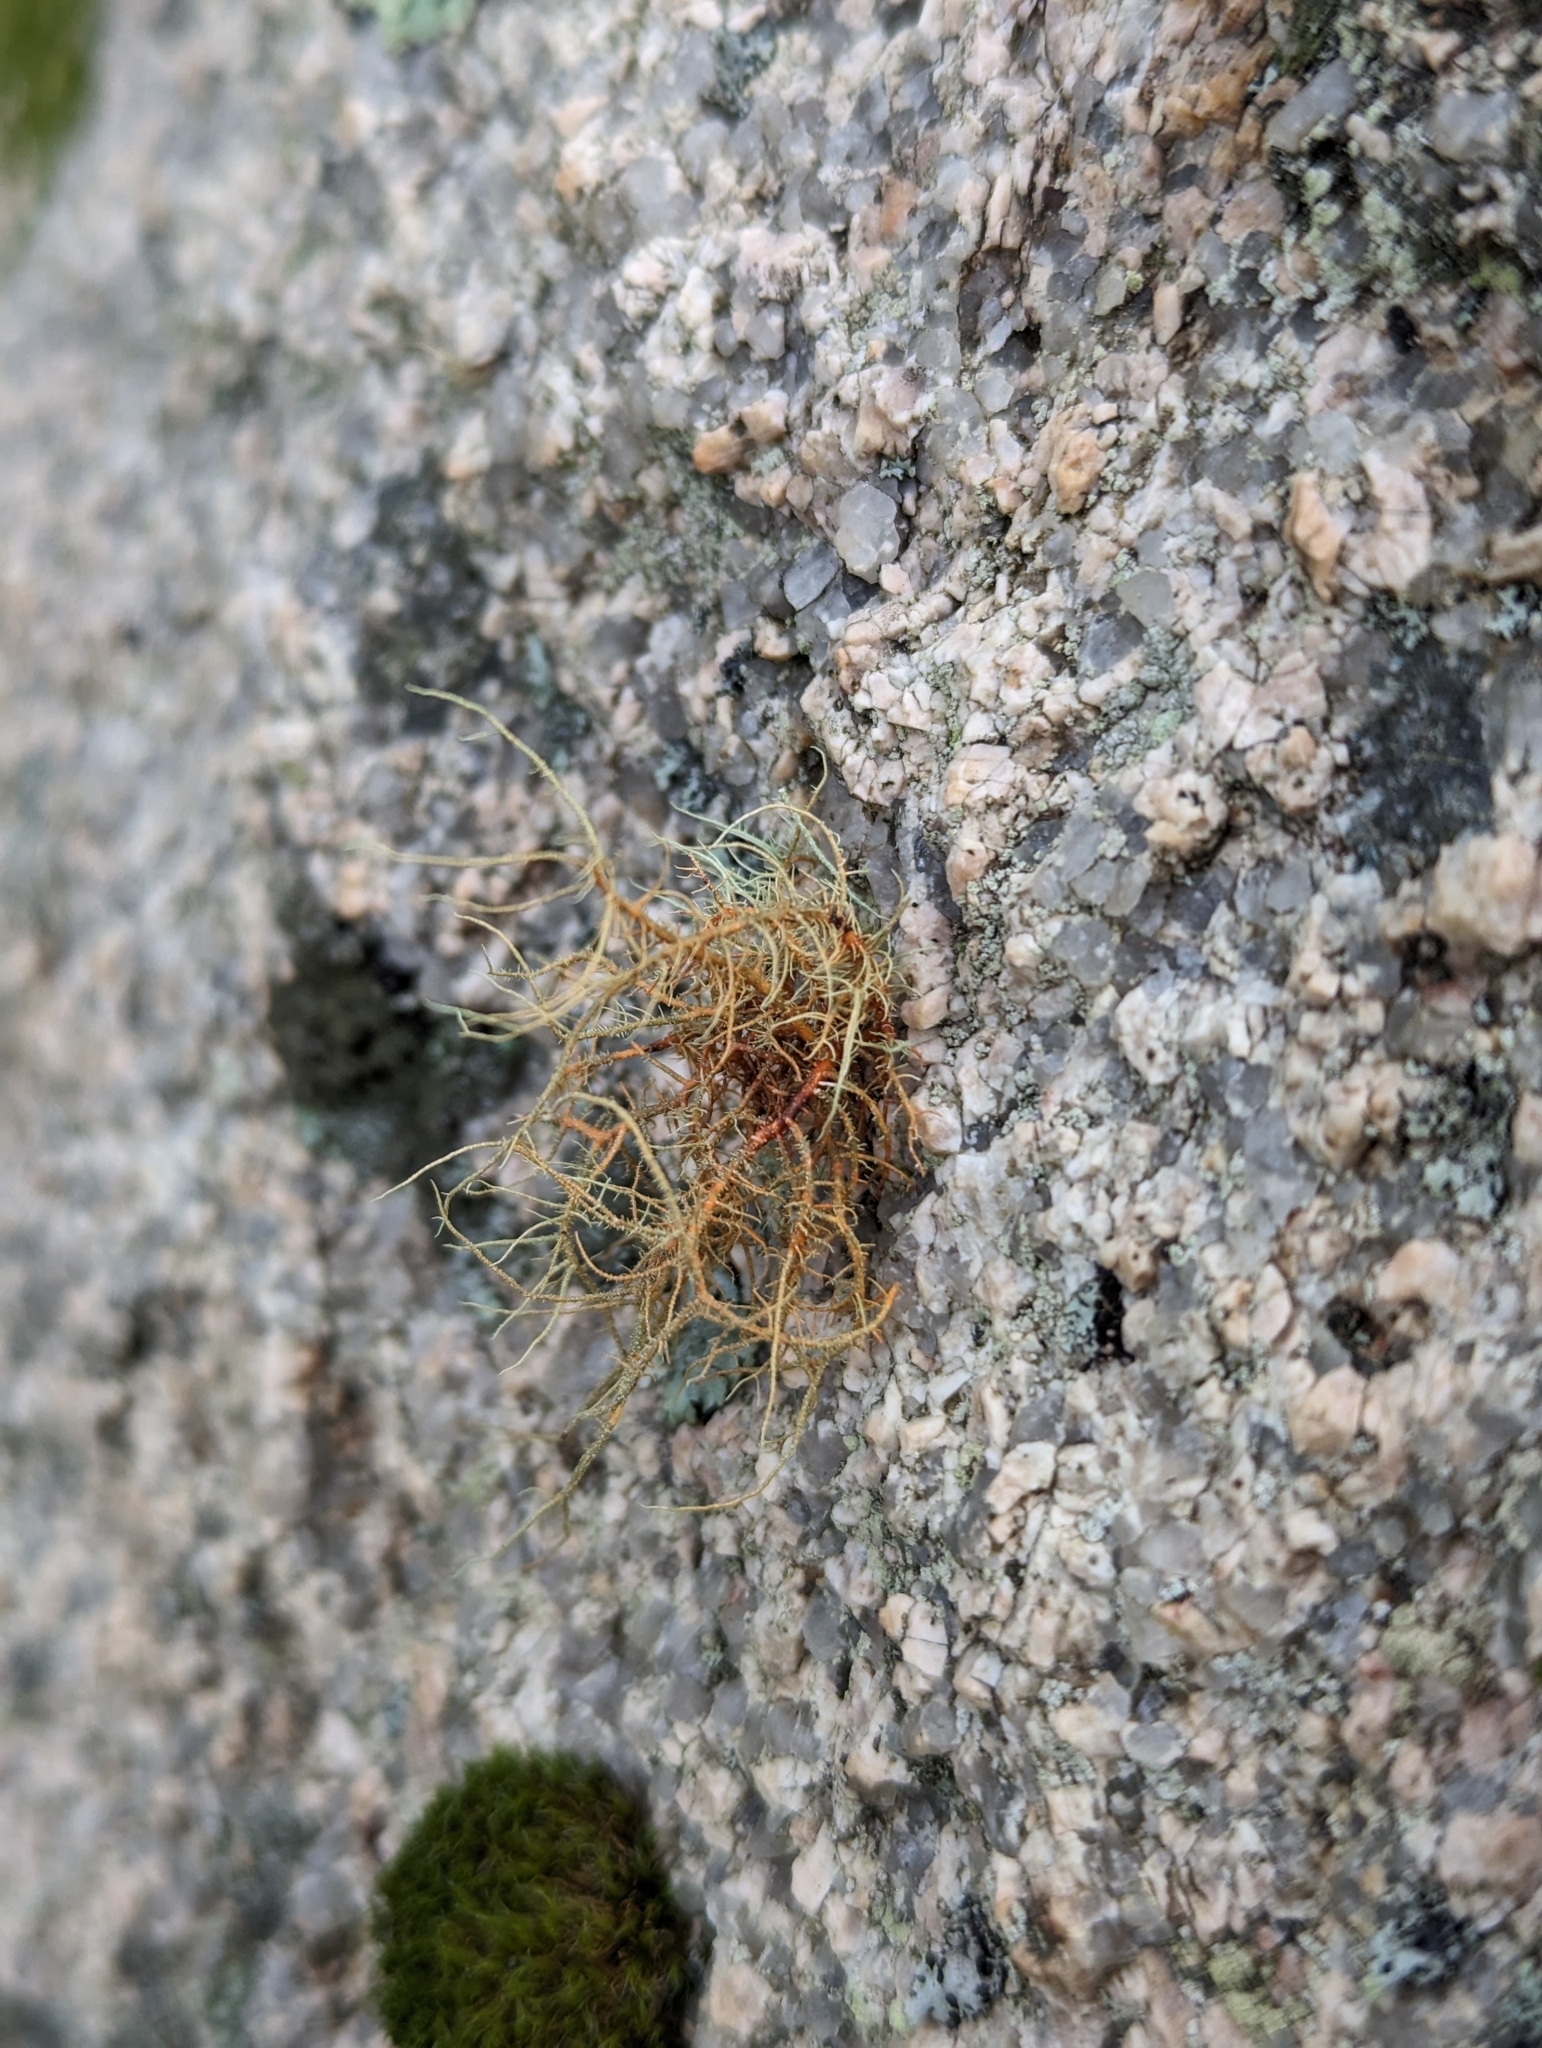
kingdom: Fungi
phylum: Ascomycota
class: Lecanoromycetes
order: Lecanorales
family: Parmeliaceae
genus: Usnea
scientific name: Usnea rubicunda
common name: Red beard lichen
